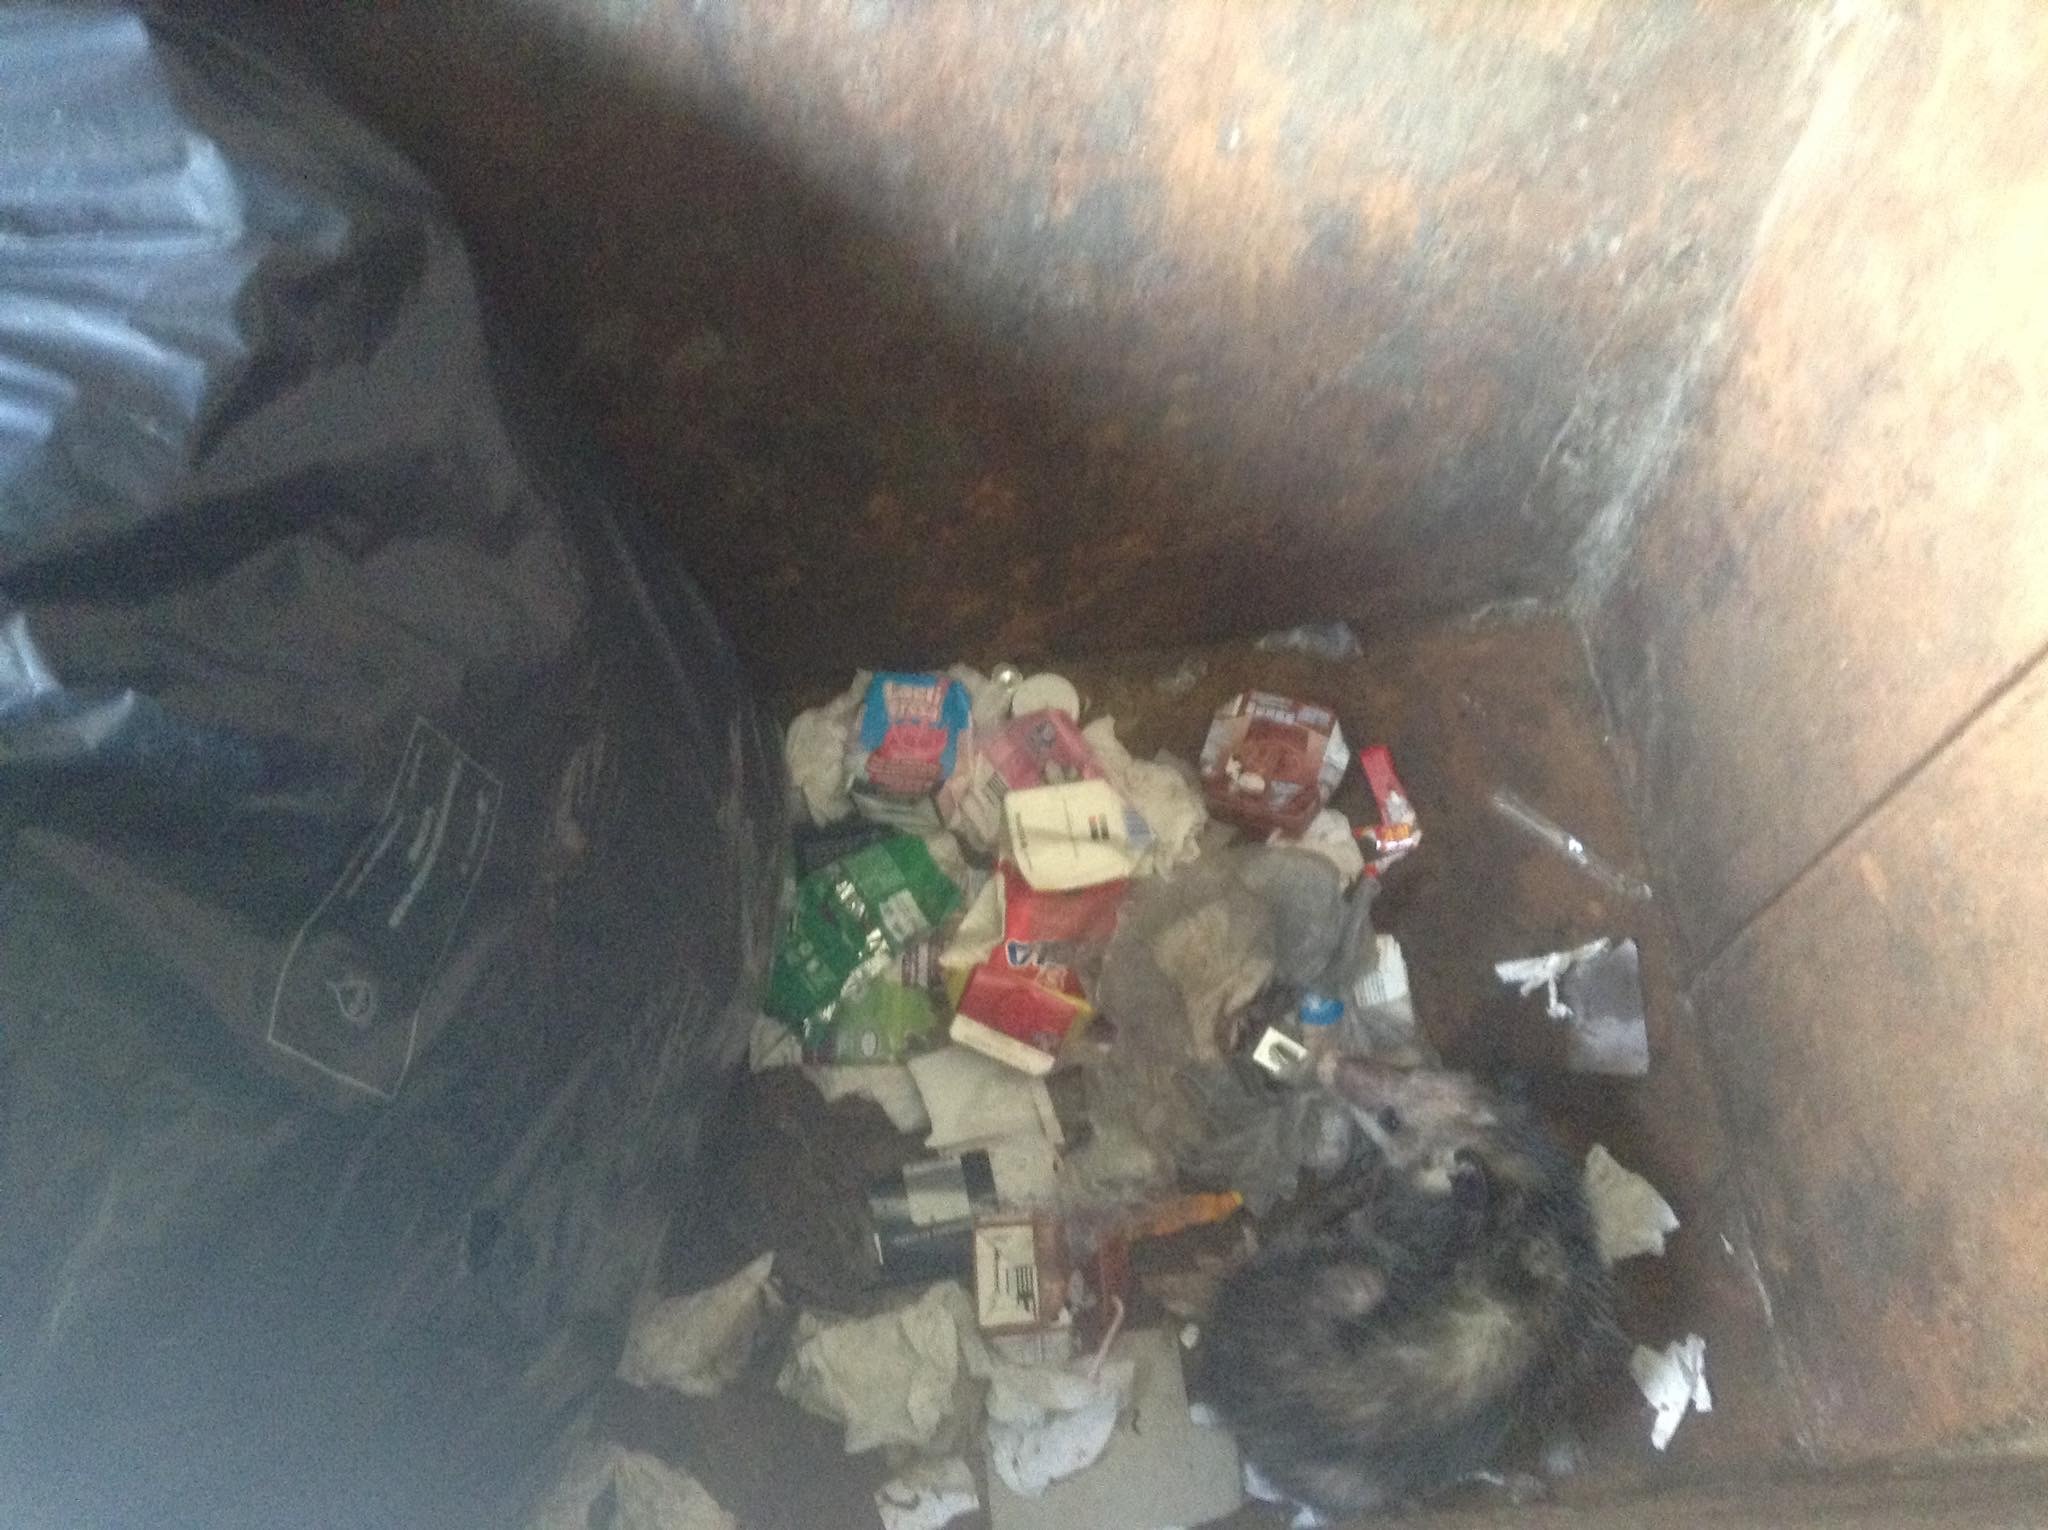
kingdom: Animalia
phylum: Chordata
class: Mammalia
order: Didelphimorphia
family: Didelphidae
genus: Didelphis
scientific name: Didelphis virginiana
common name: Virginia opossum
